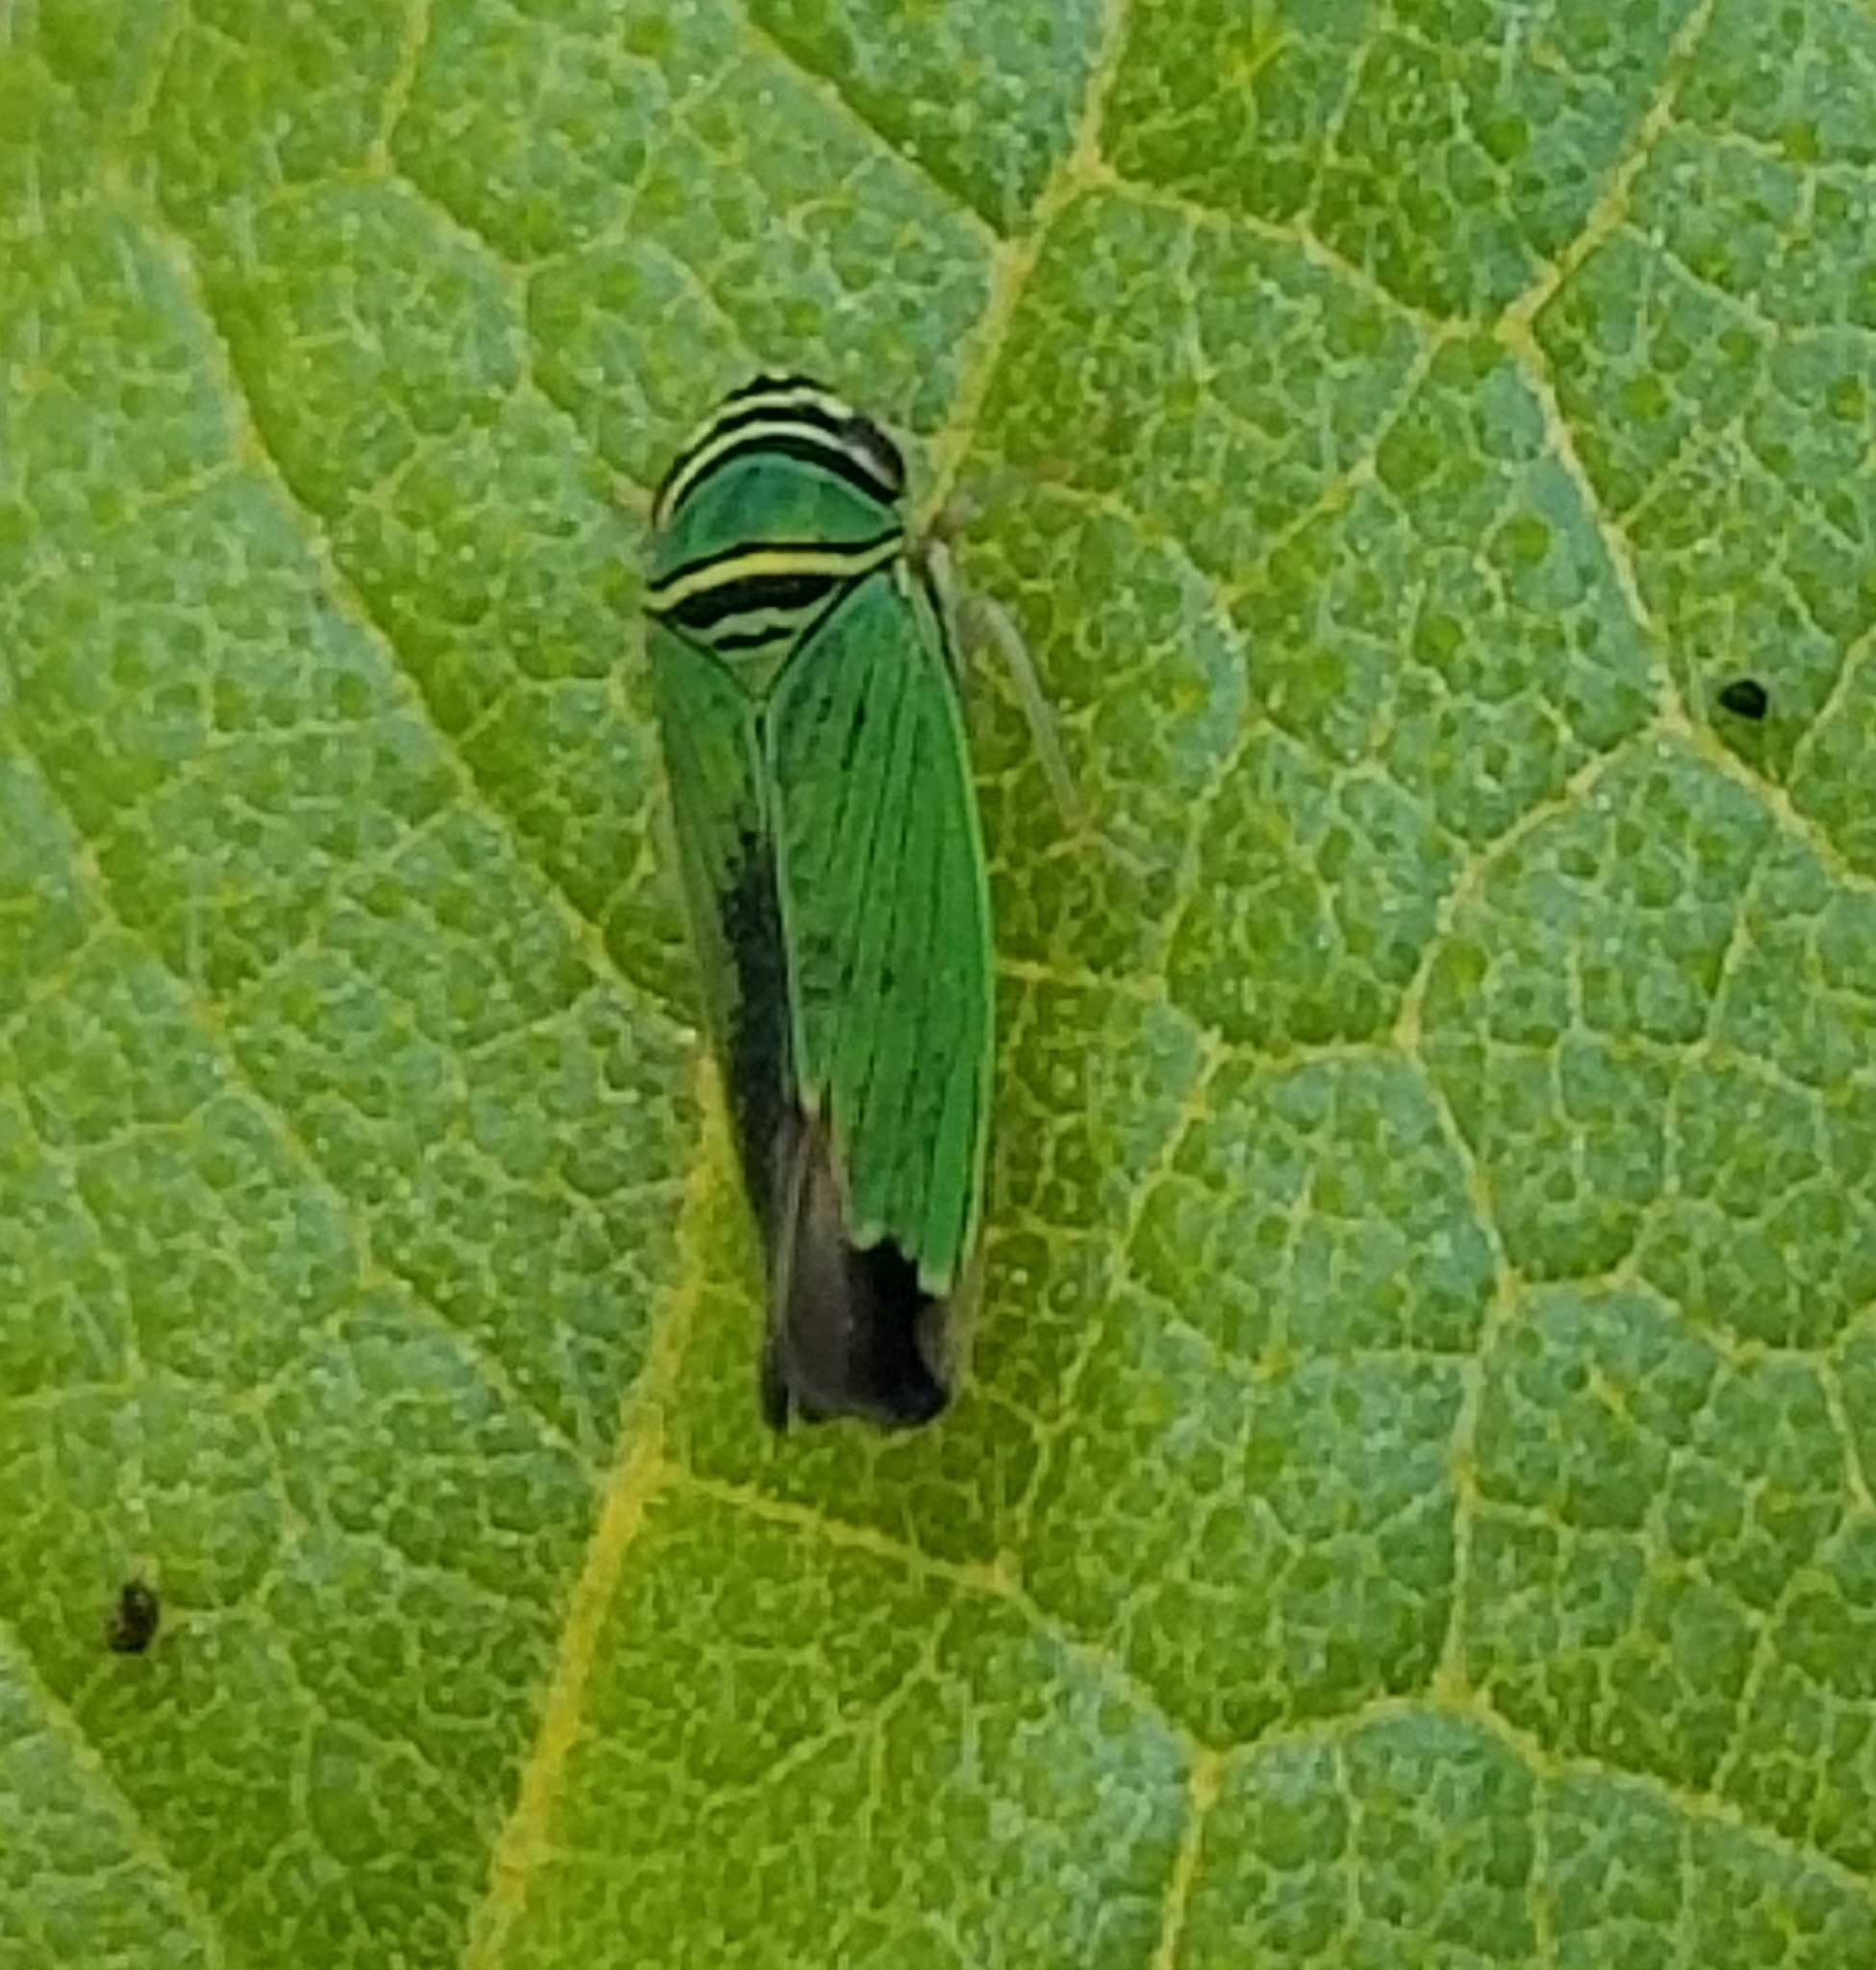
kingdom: Animalia
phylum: Arthropoda
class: Insecta
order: Hemiptera
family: Cicadellidae
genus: Tylozygus
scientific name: Tylozygus geometricus
